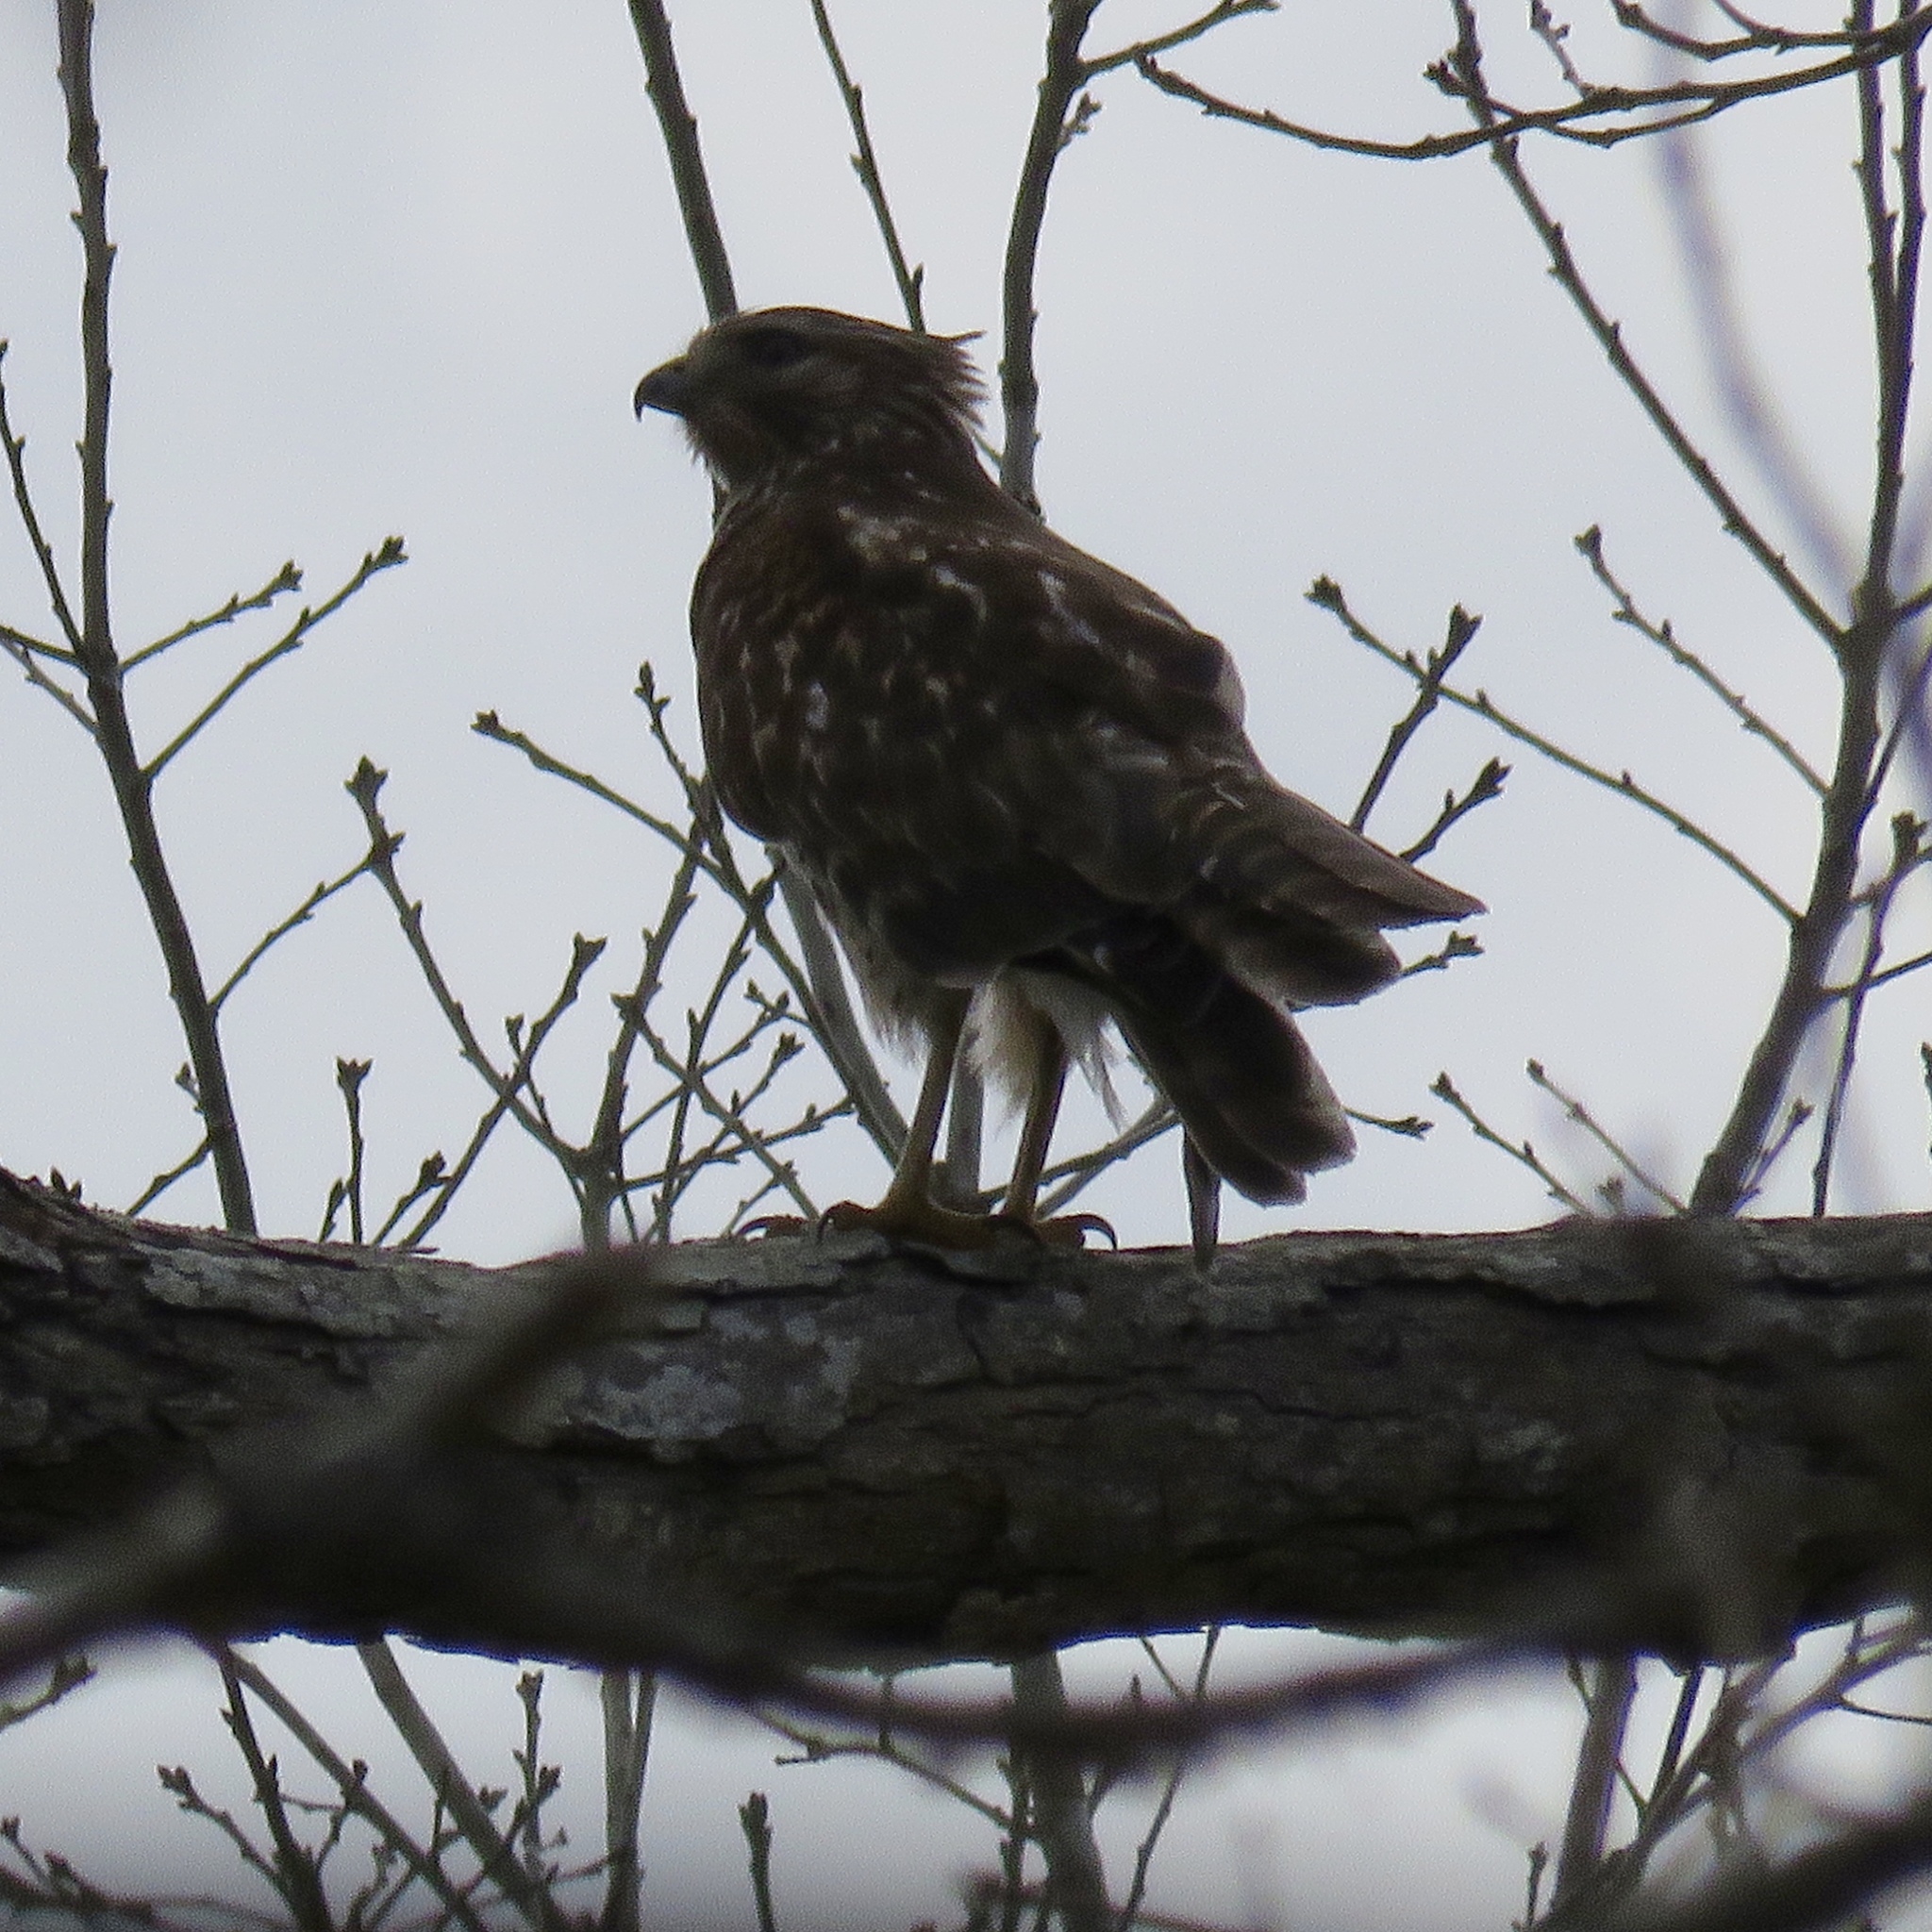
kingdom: Animalia
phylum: Chordata
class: Aves
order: Accipitriformes
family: Accipitridae
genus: Buteo
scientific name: Buteo lineatus
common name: Red-shouldered hawk
